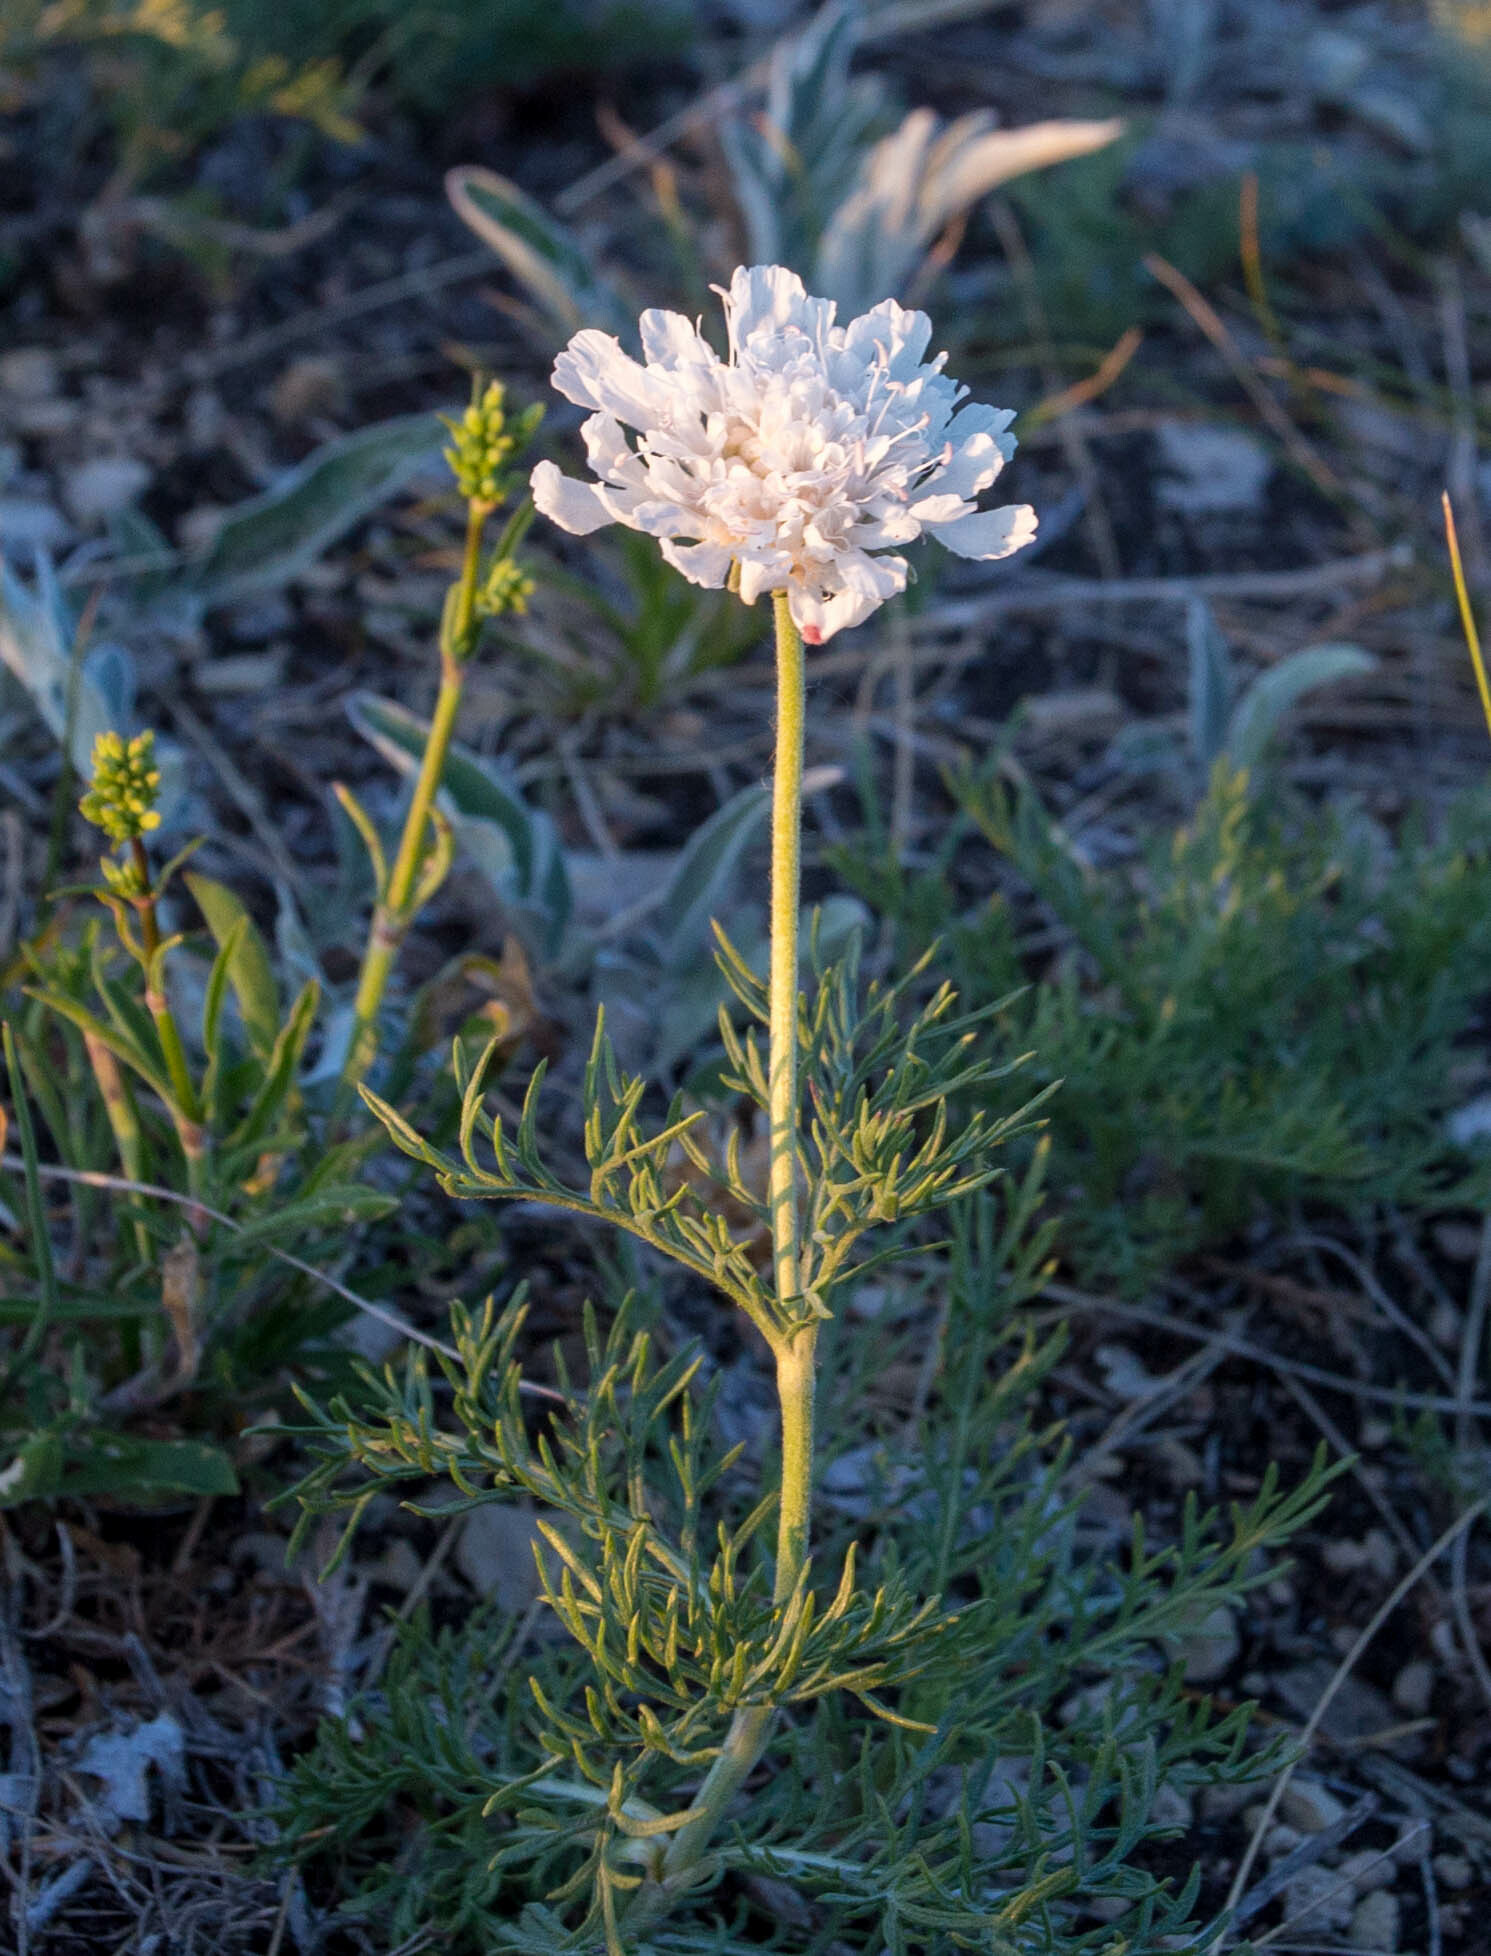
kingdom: Plantae
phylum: Tracheophyta
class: Magnoliopsida
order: Dipsacales
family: Caprifoliaceae
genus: Lomelosia
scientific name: Lomelosia isetensis
